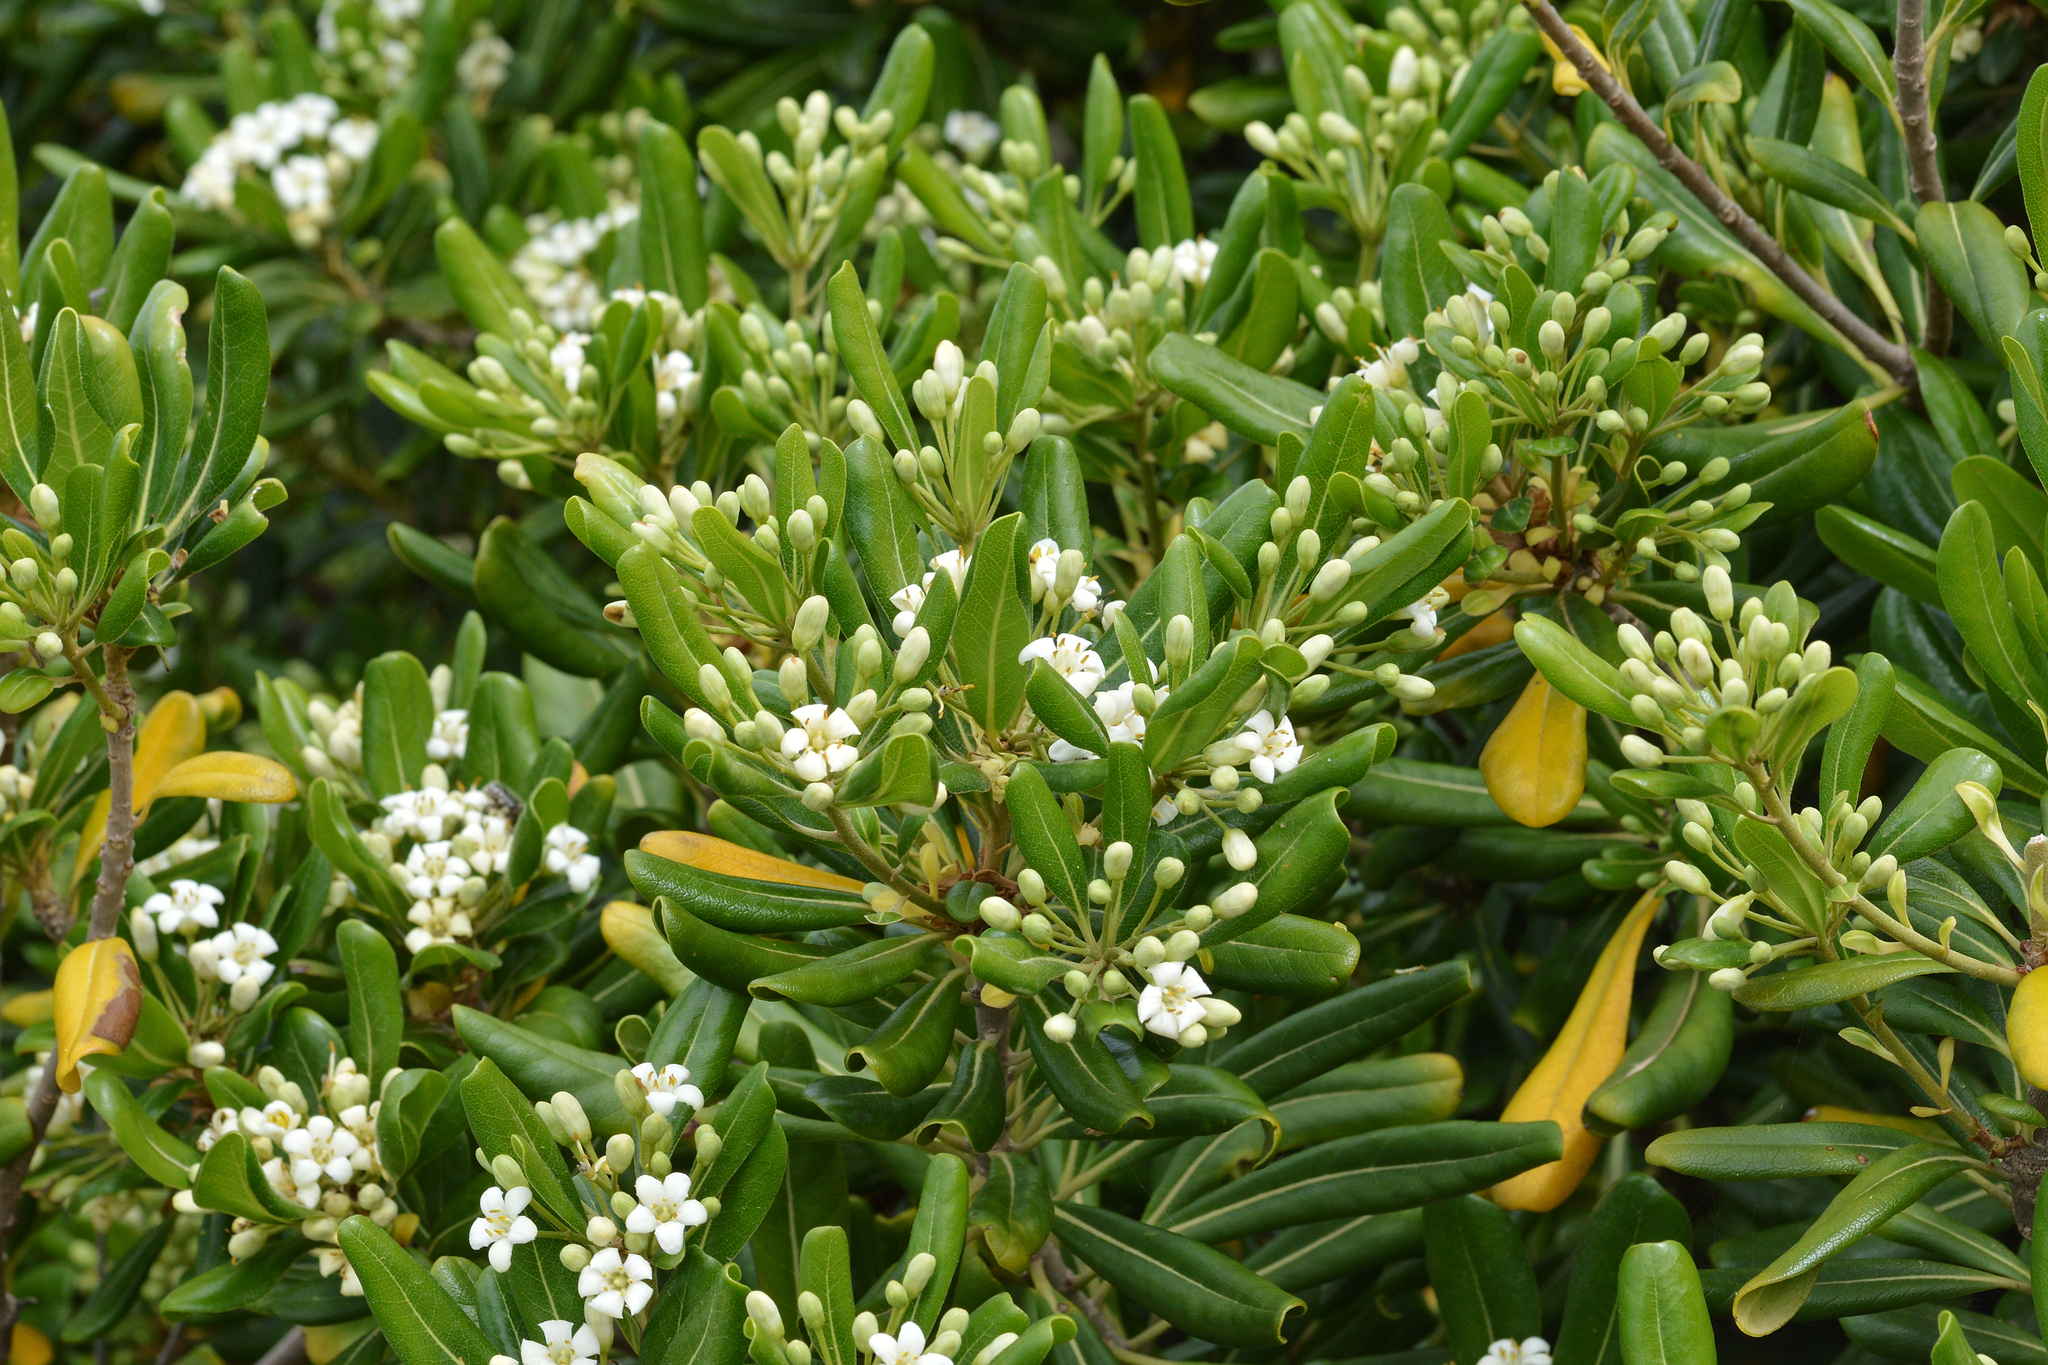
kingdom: Plantae
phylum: Tracheophyta
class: Magnoliopsida
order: Apiales
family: Pittosporaceae
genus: Pittosporum
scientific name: Pittosporum tobira
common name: Japanese cheesewood
